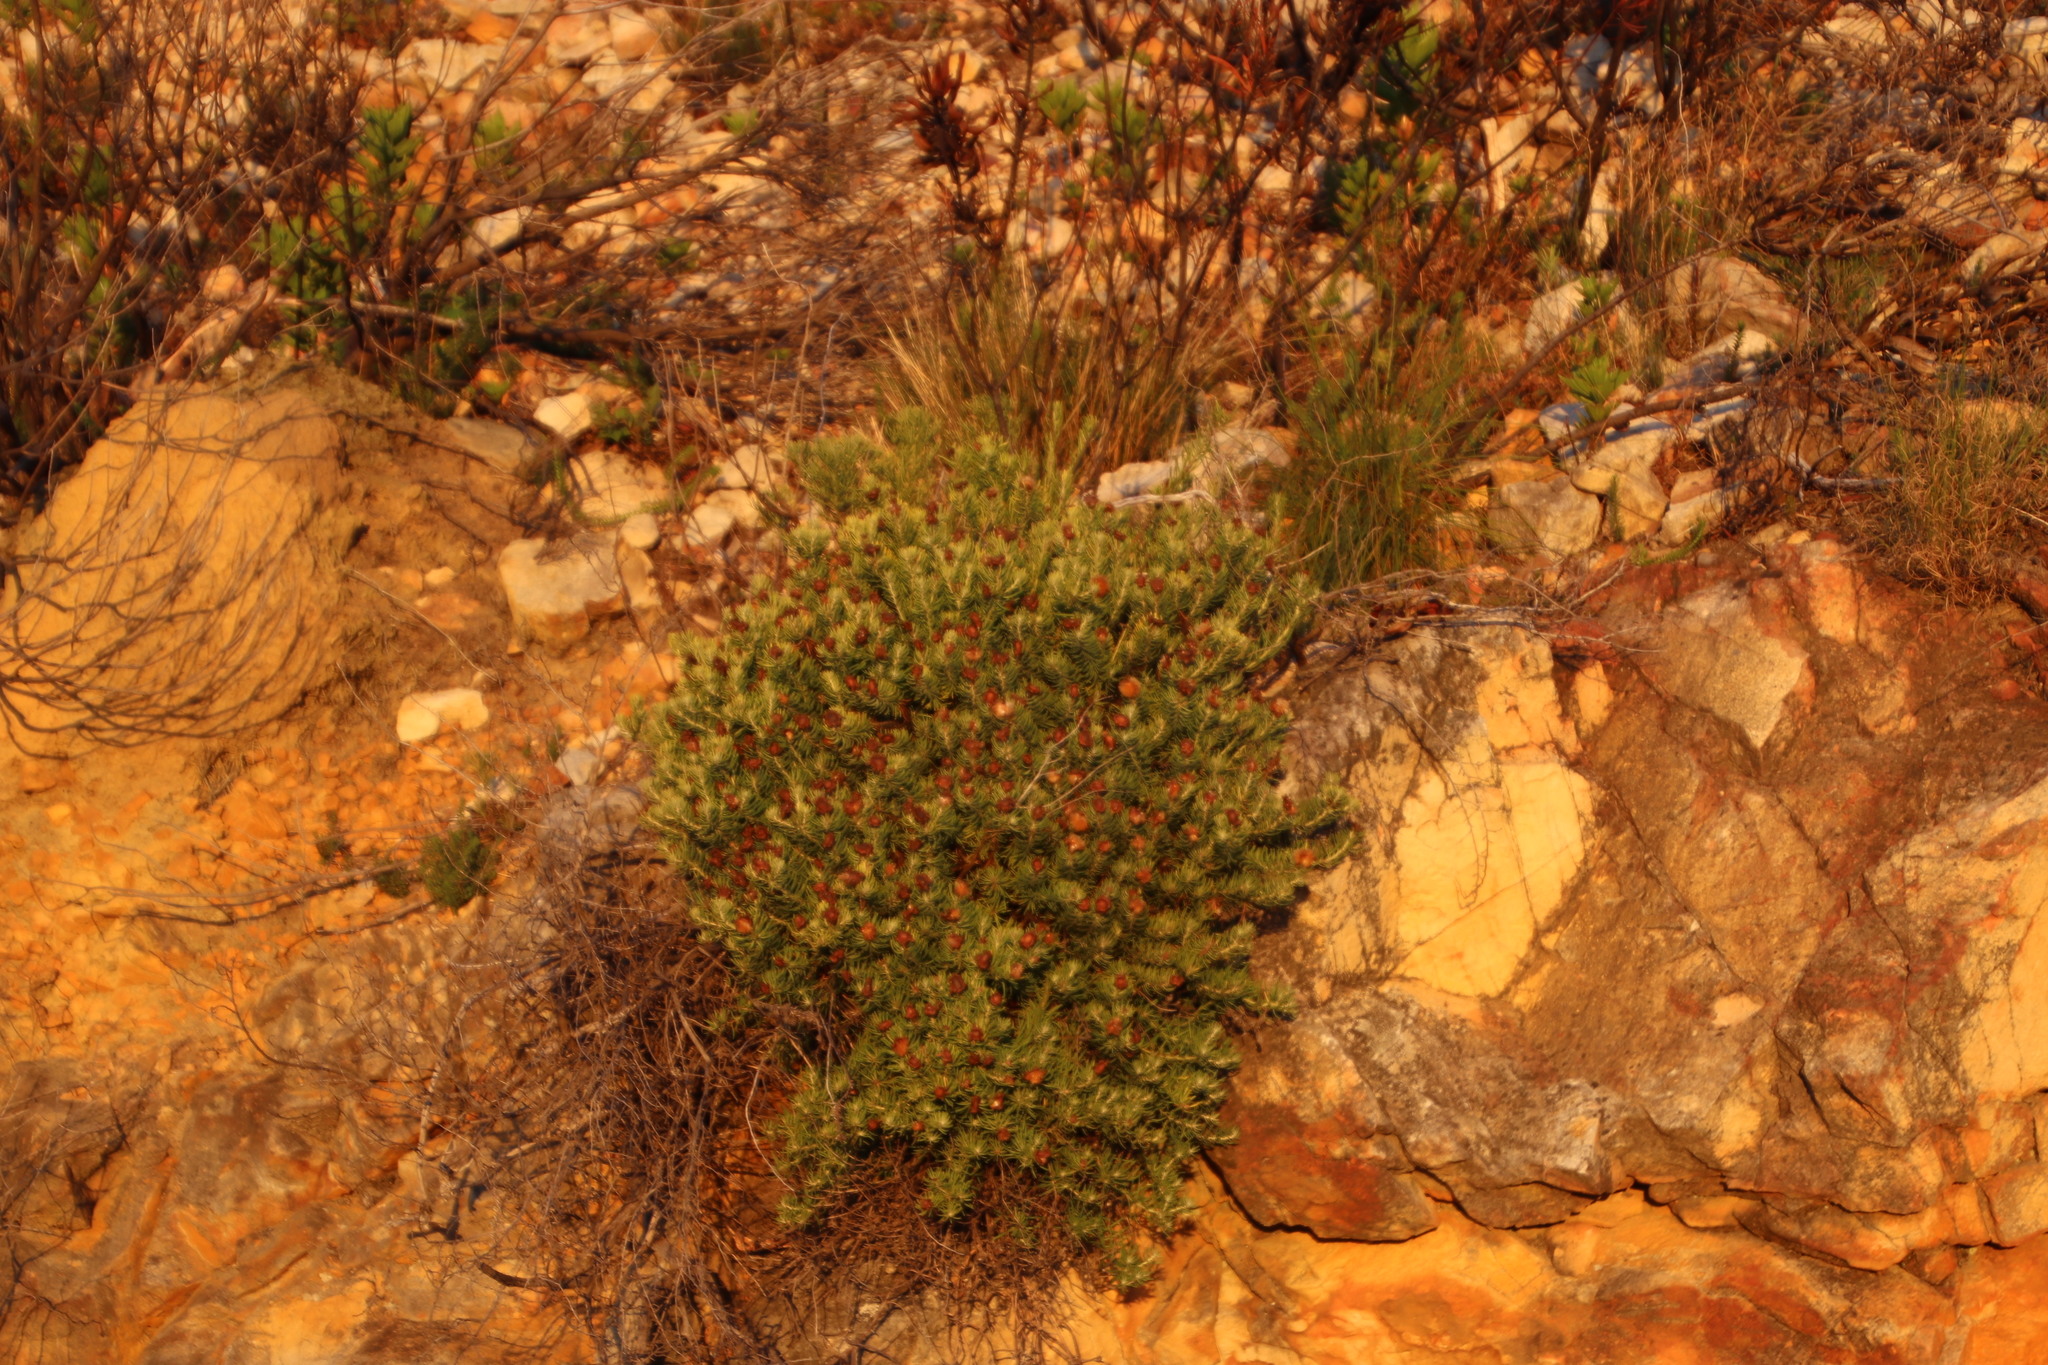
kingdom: Plantae
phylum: Tracheophyta
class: Magnoliopsida
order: Asterales
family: Asteraceae
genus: Heterolepis
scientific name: Heterolepis aliena
